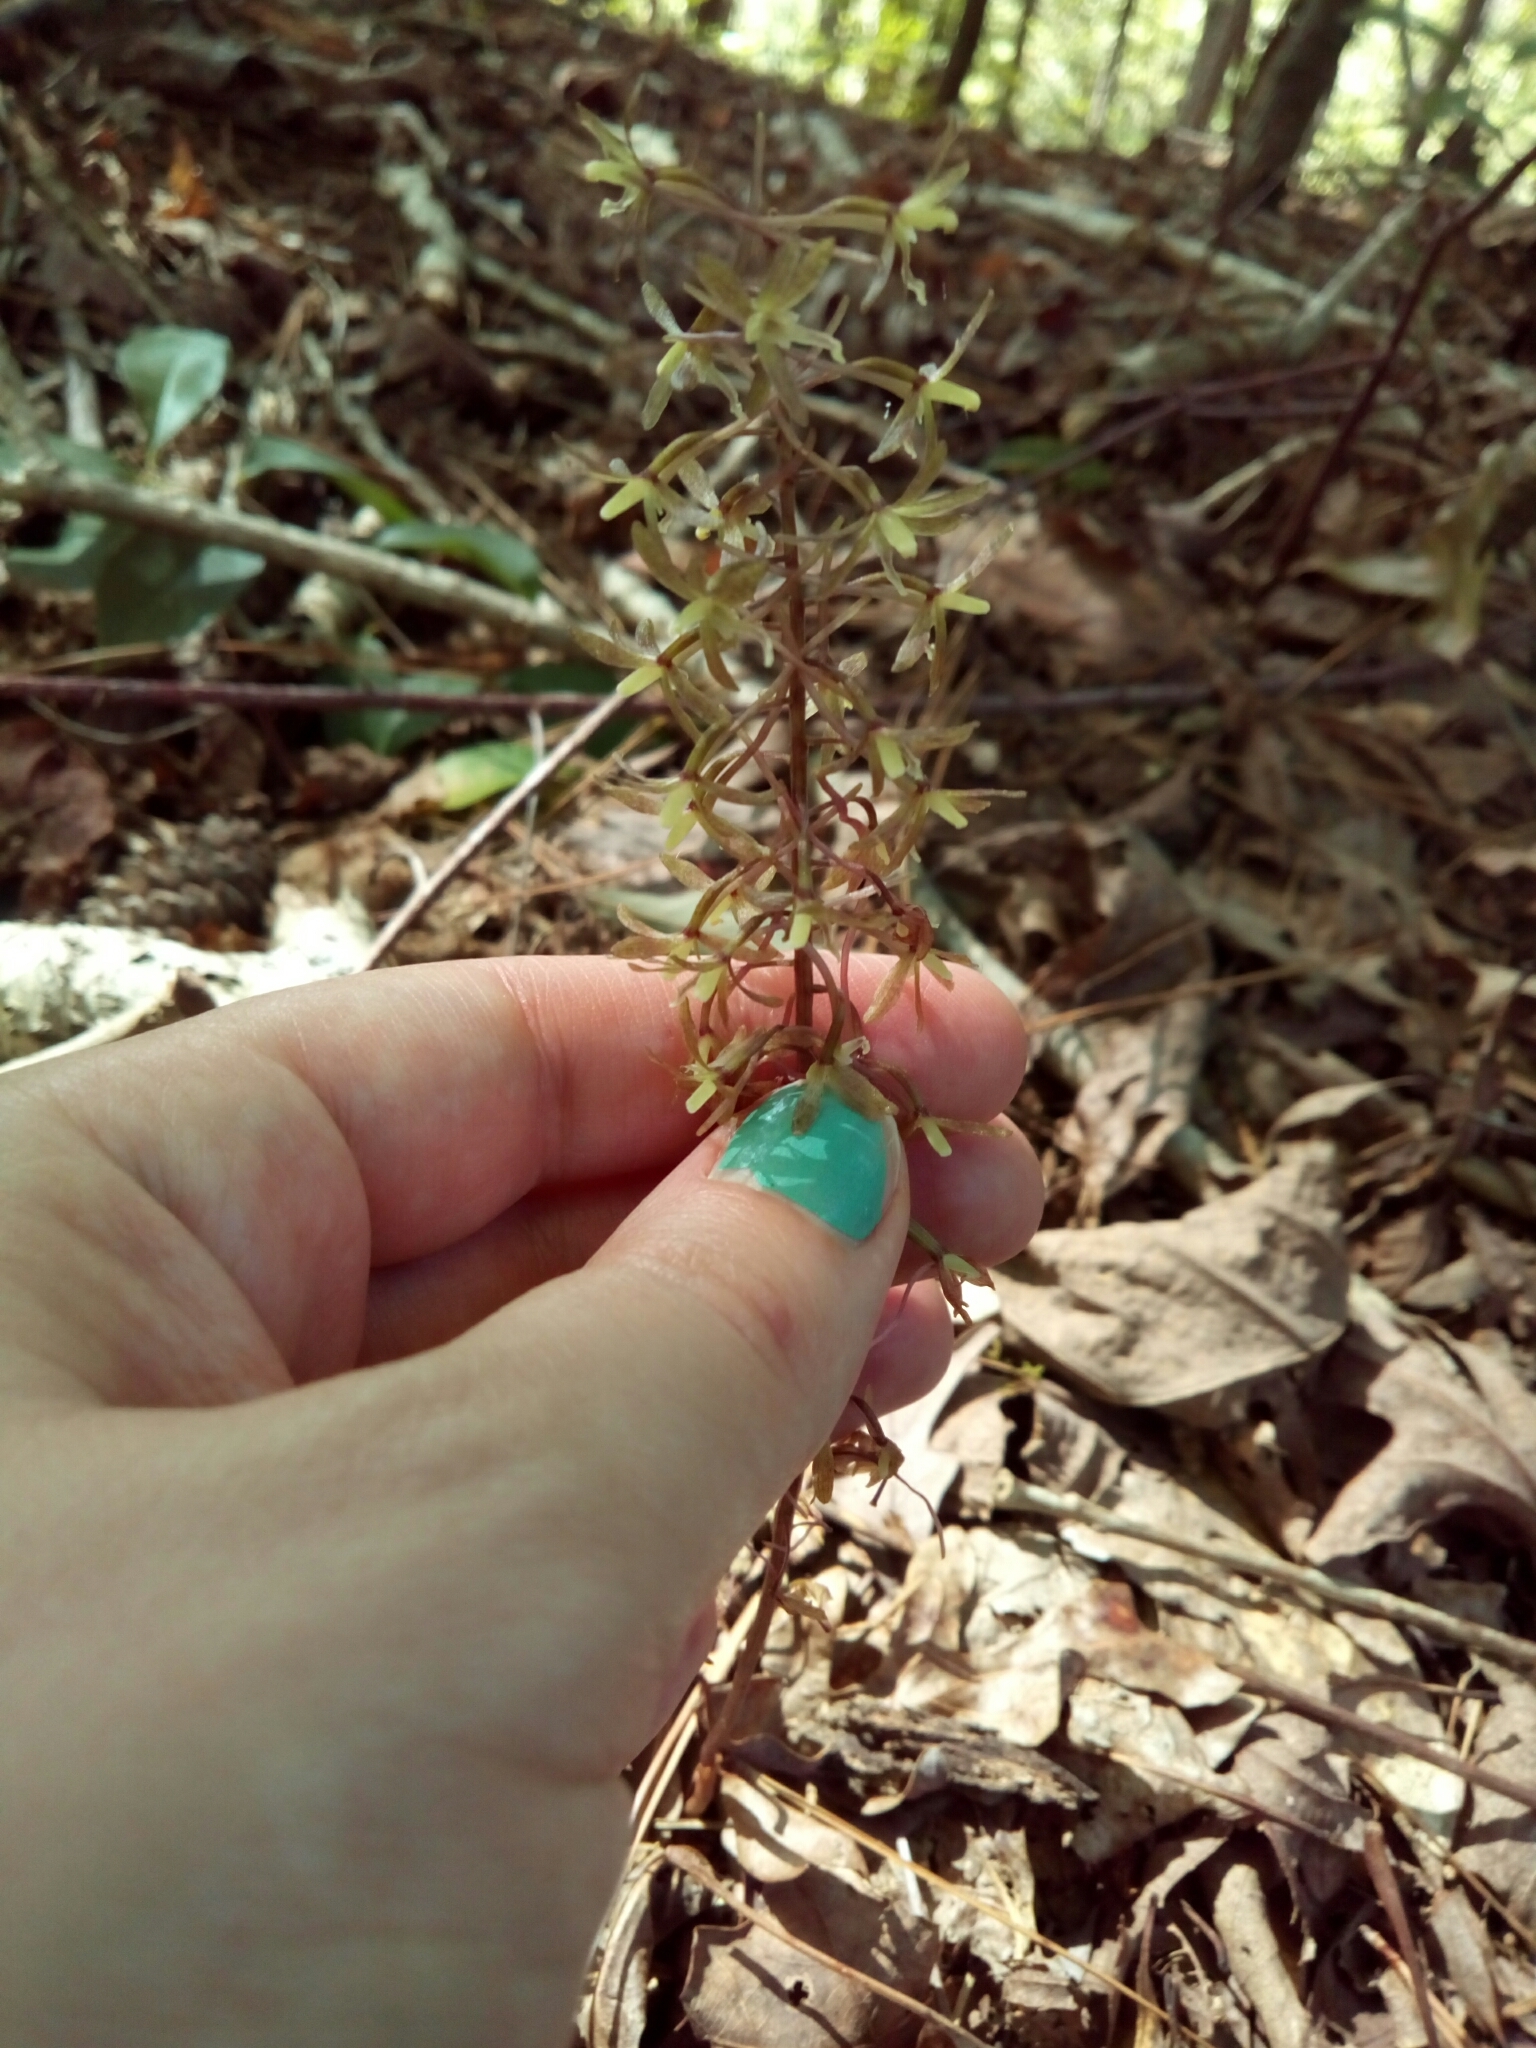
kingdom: Plantae
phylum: Tracheophyta
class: Liliopsida
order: Asparagales
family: Orchidaceae
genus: Tipularia
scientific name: Tipularia discolor
